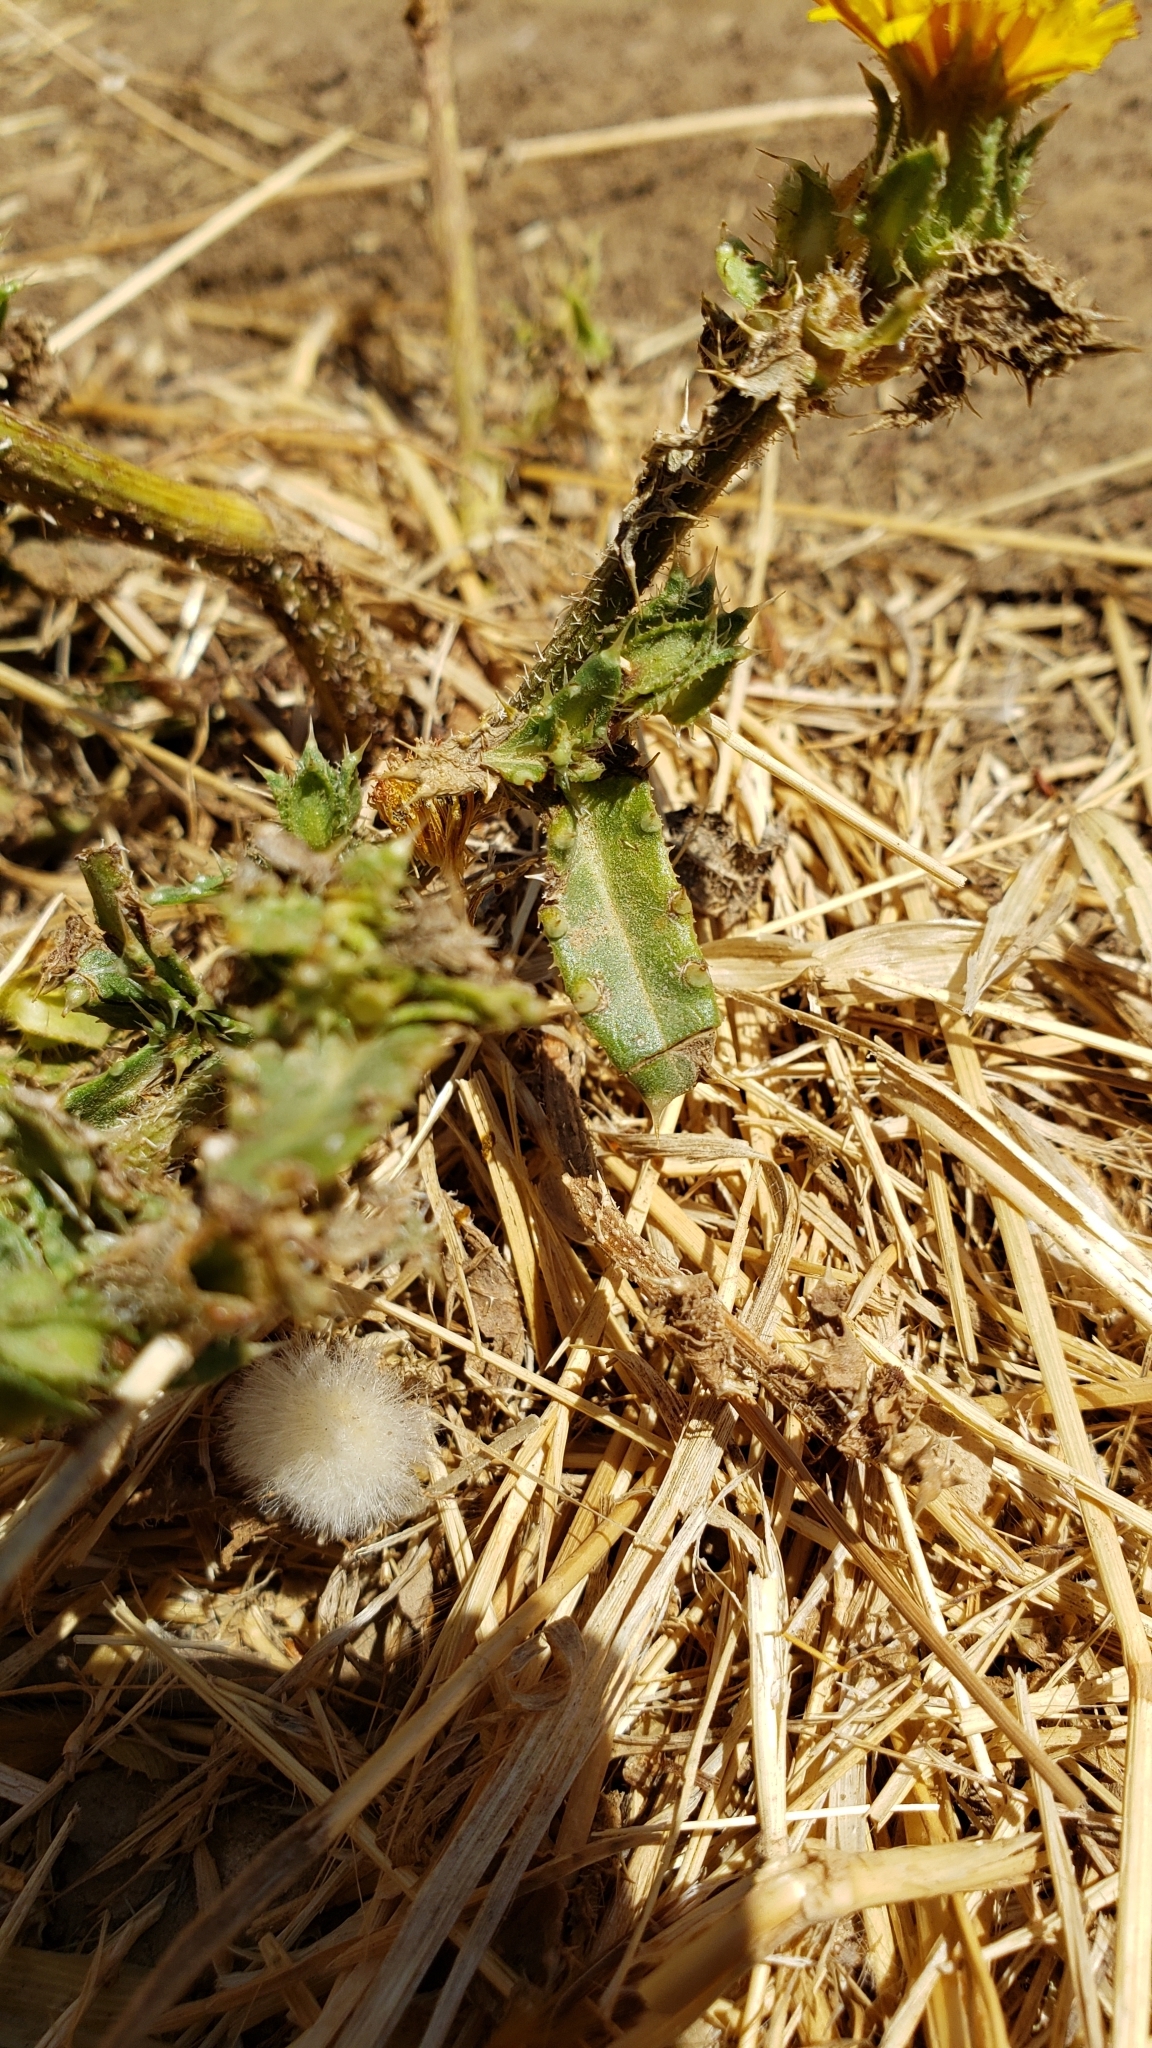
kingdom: Plantae
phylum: Tracheophyta
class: Magnoliopsida
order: Asterales
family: Asteraceae
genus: Helminthotheca
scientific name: Helminthotheca echioides
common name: Ox-tongue
